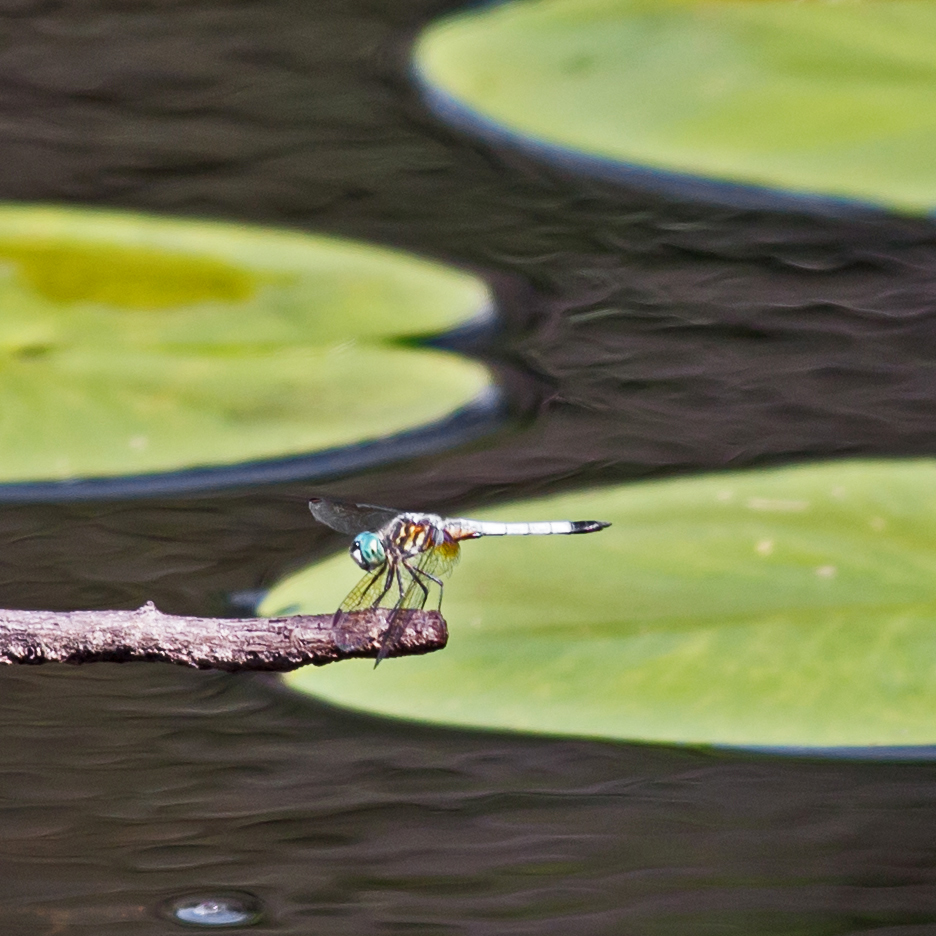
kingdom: Animalia
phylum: Arthropoda
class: Insecta
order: Odonata
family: Libellulidae
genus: Pachydiplax
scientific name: Pachydiplax longipennis
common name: Blue dasher
